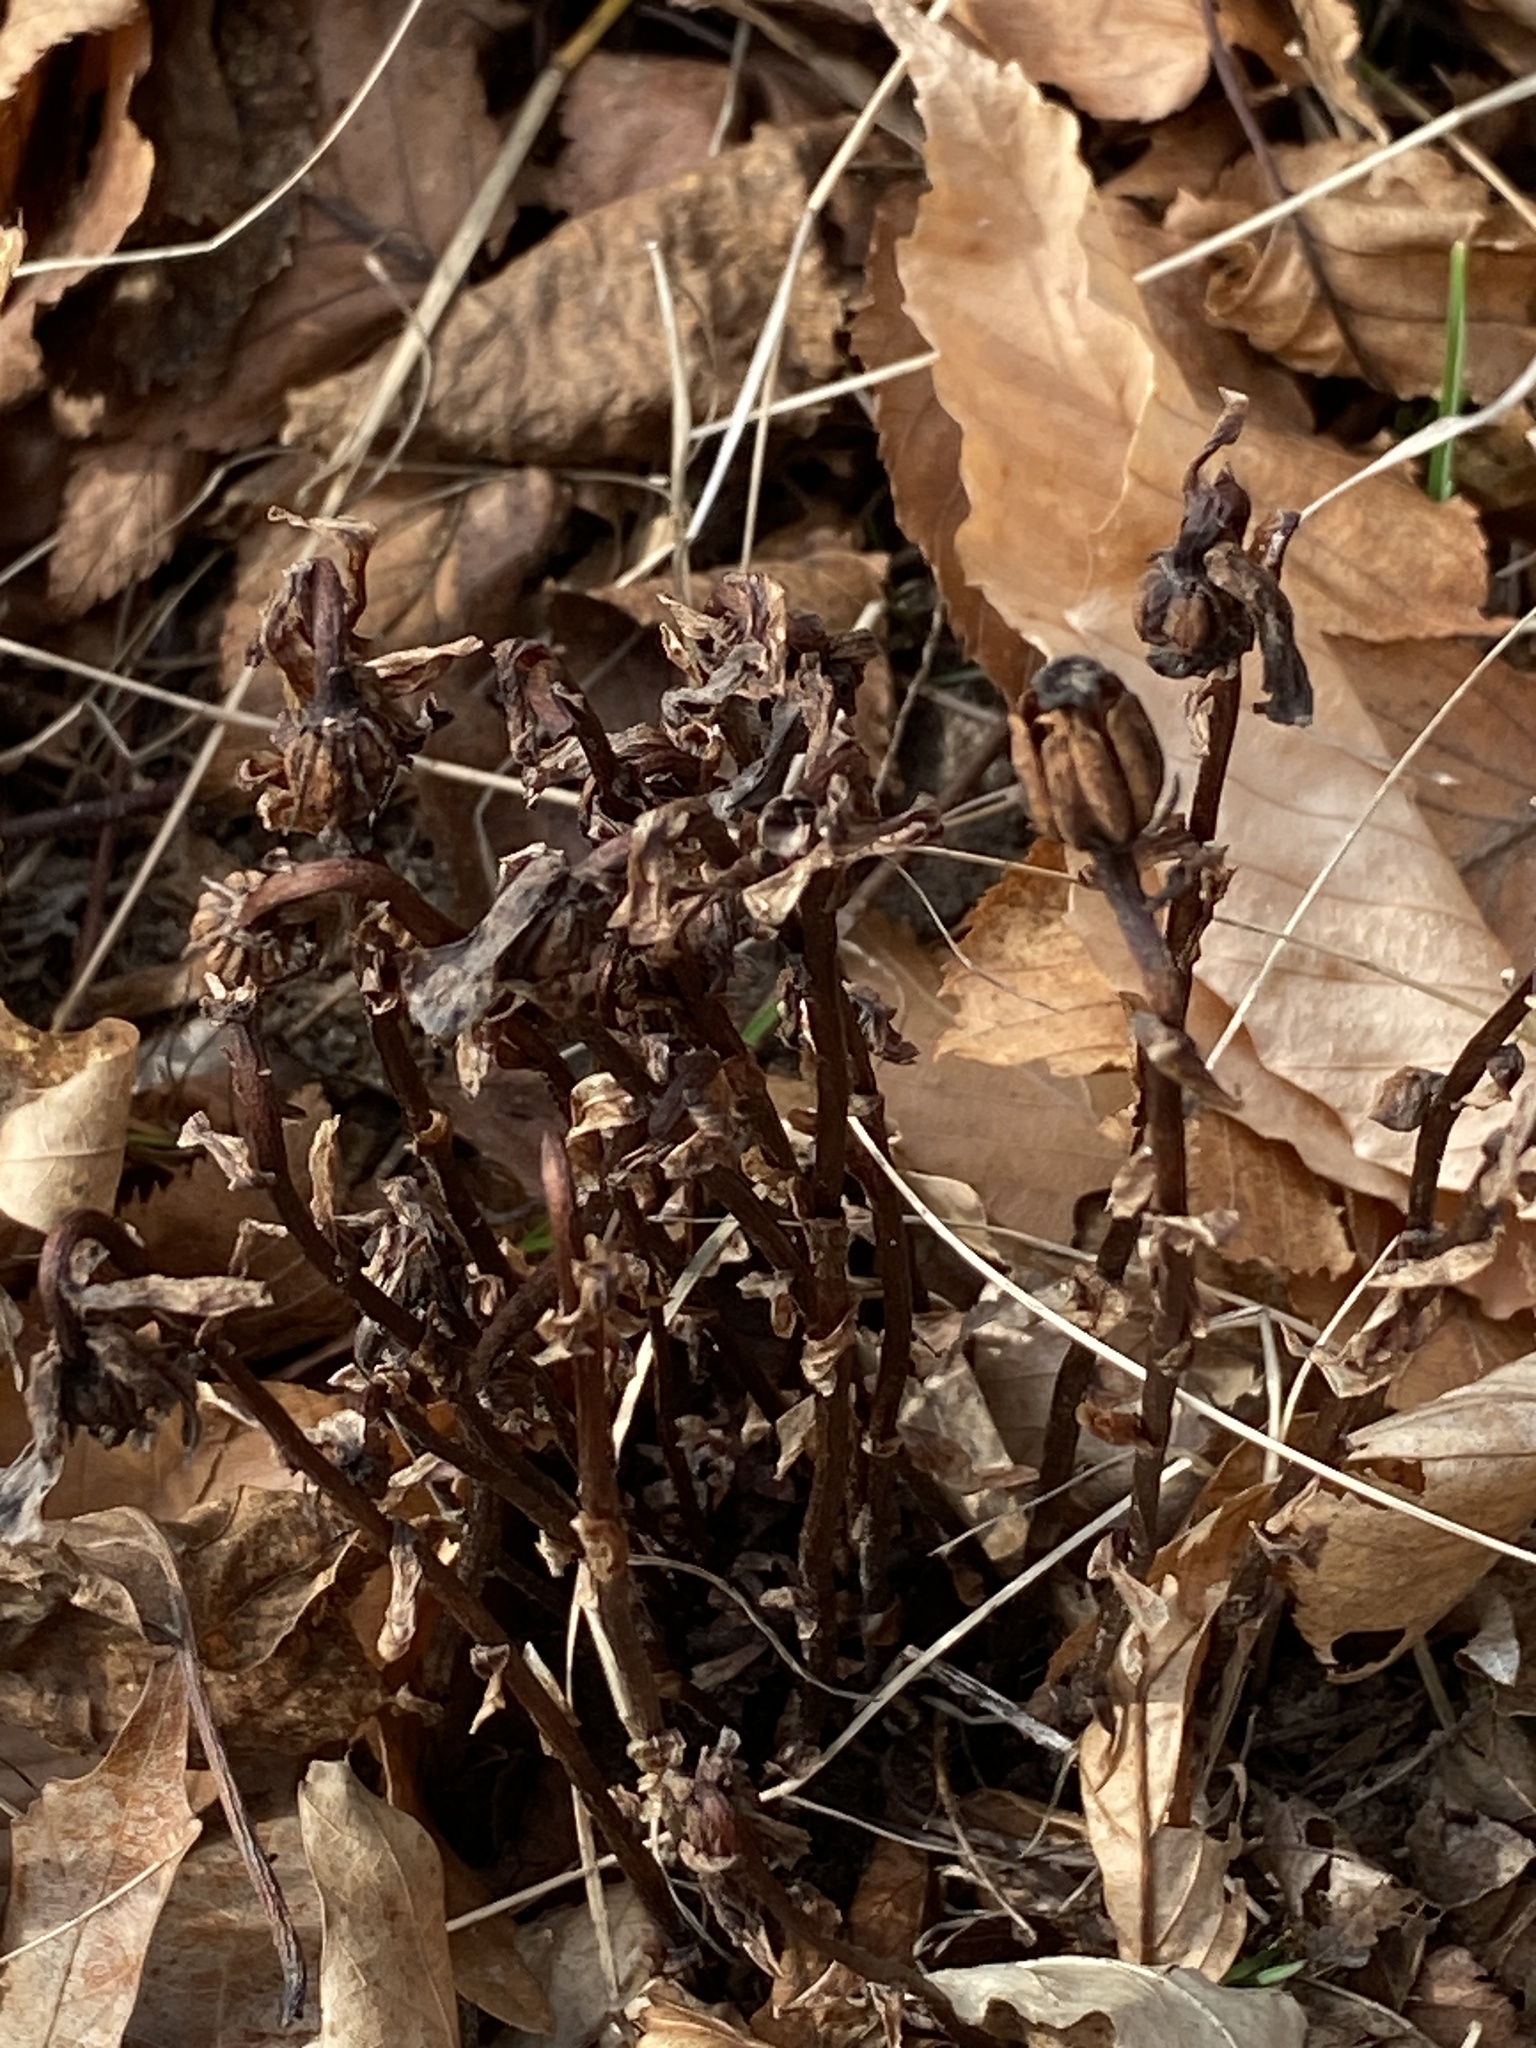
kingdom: Plantae
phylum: Tracheophyta
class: Magnoliopsida
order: Ericales
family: Ericaceae
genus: Monotropa
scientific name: Monotropa uniflora
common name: Convulsion root
